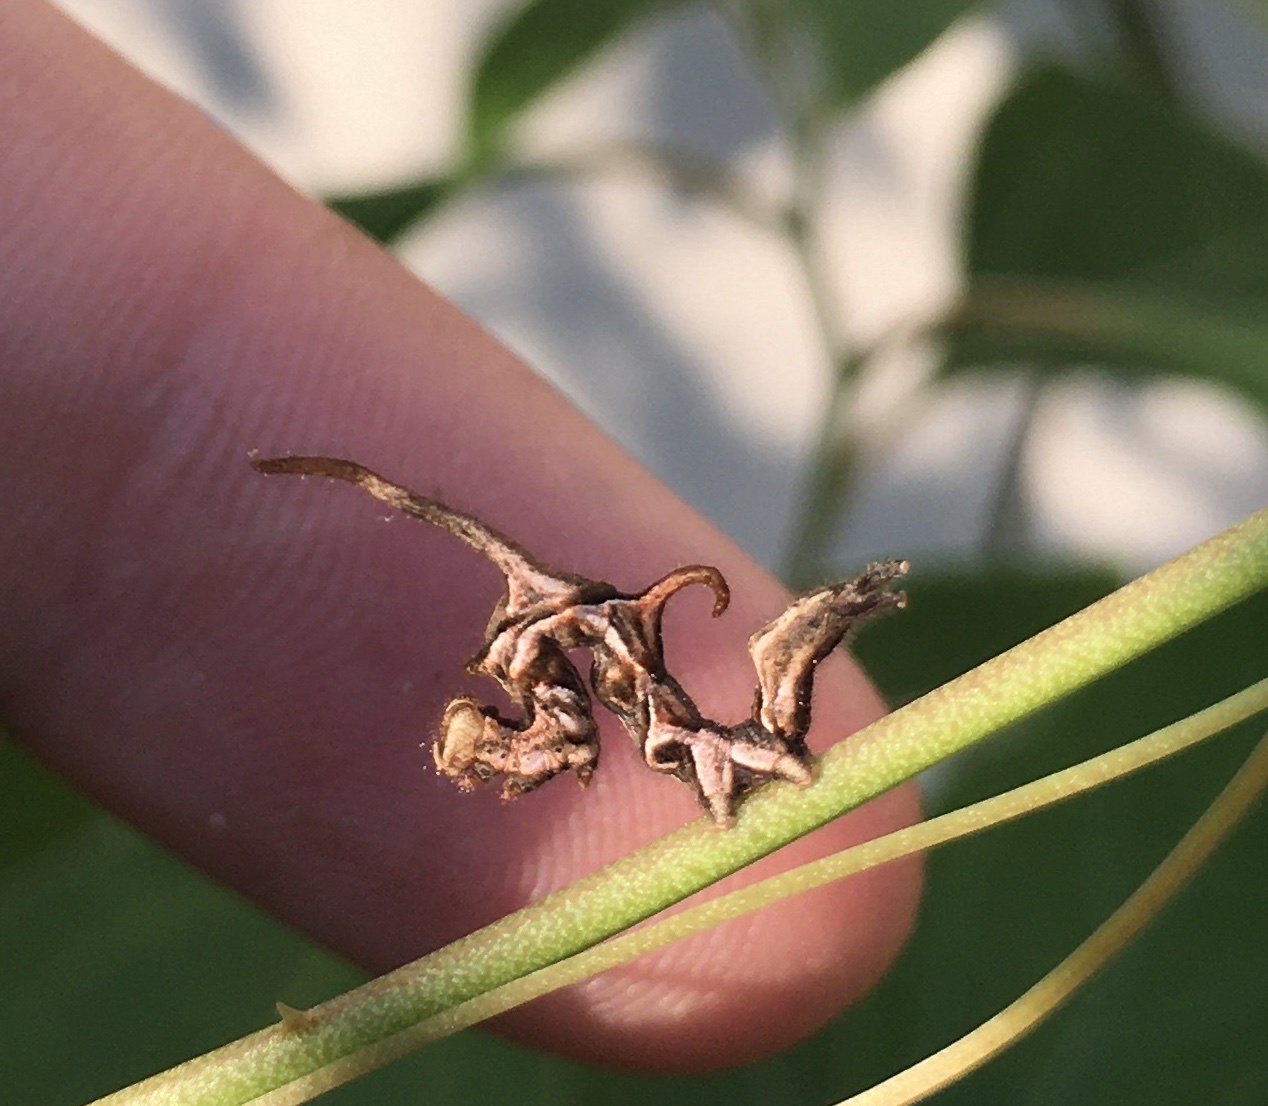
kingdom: Animalia
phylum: Arthropoda
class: Insecta
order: Lepidoptera
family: Erebidae
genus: Phyprosopus
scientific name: Phyprosopus callitrichoides
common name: Curved-lined owlet
